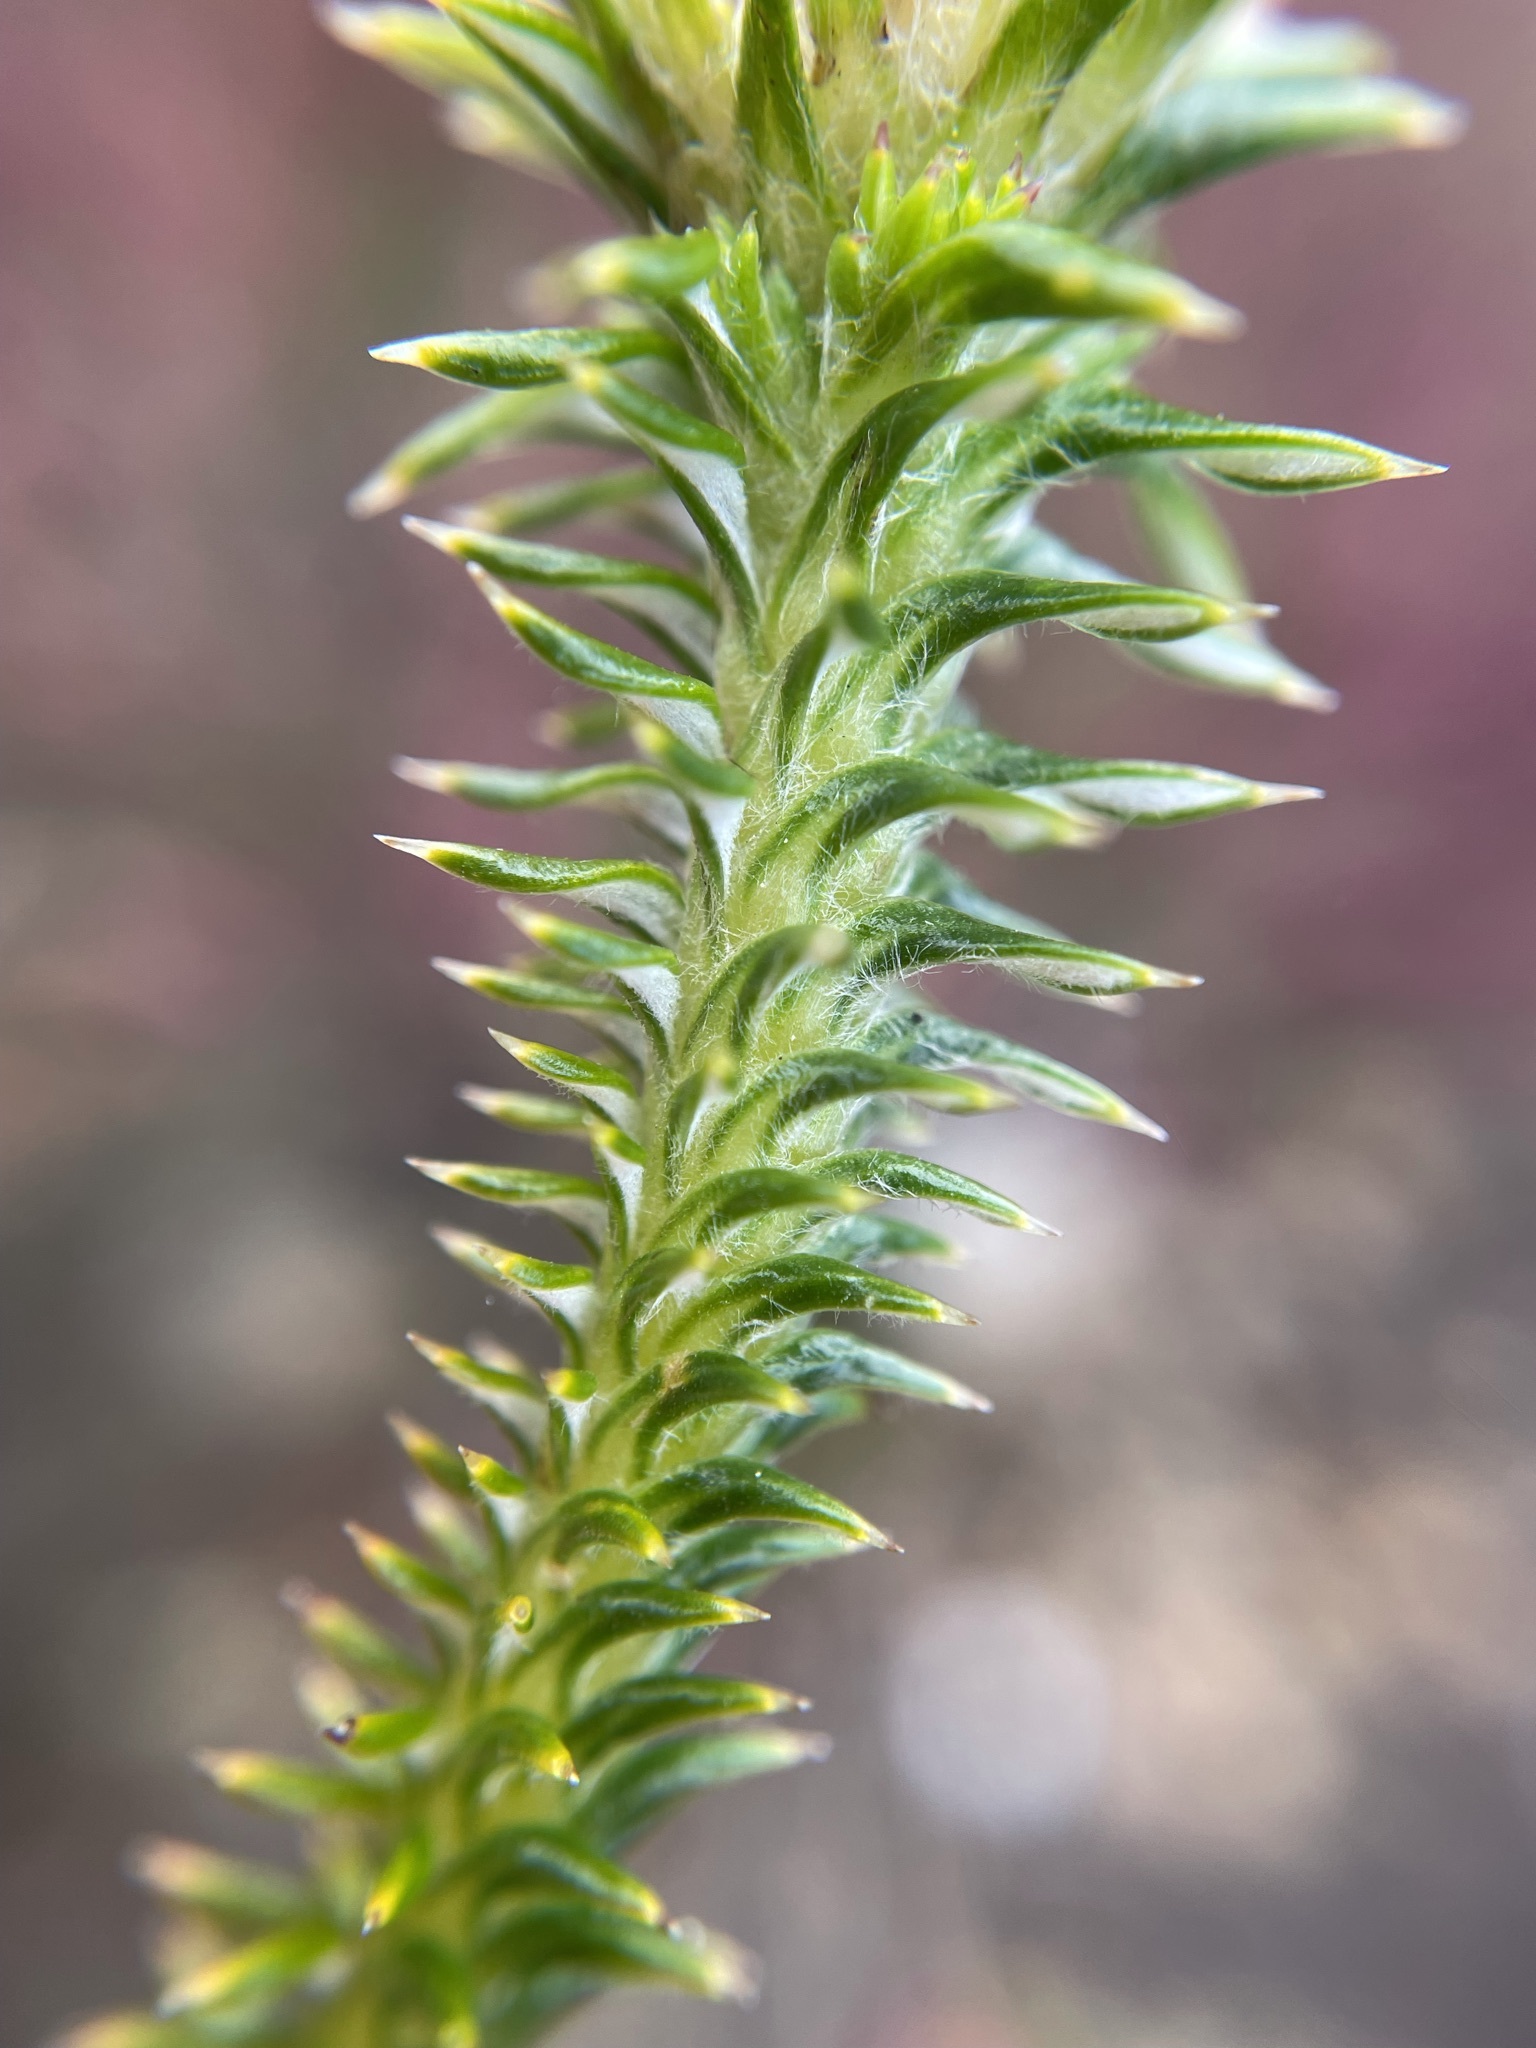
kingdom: Plantae
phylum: Tracheophyta
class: Magnoliopsida
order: Asterales
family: Asteraceae
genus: Stoebe
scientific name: Stoebe aethiopica
